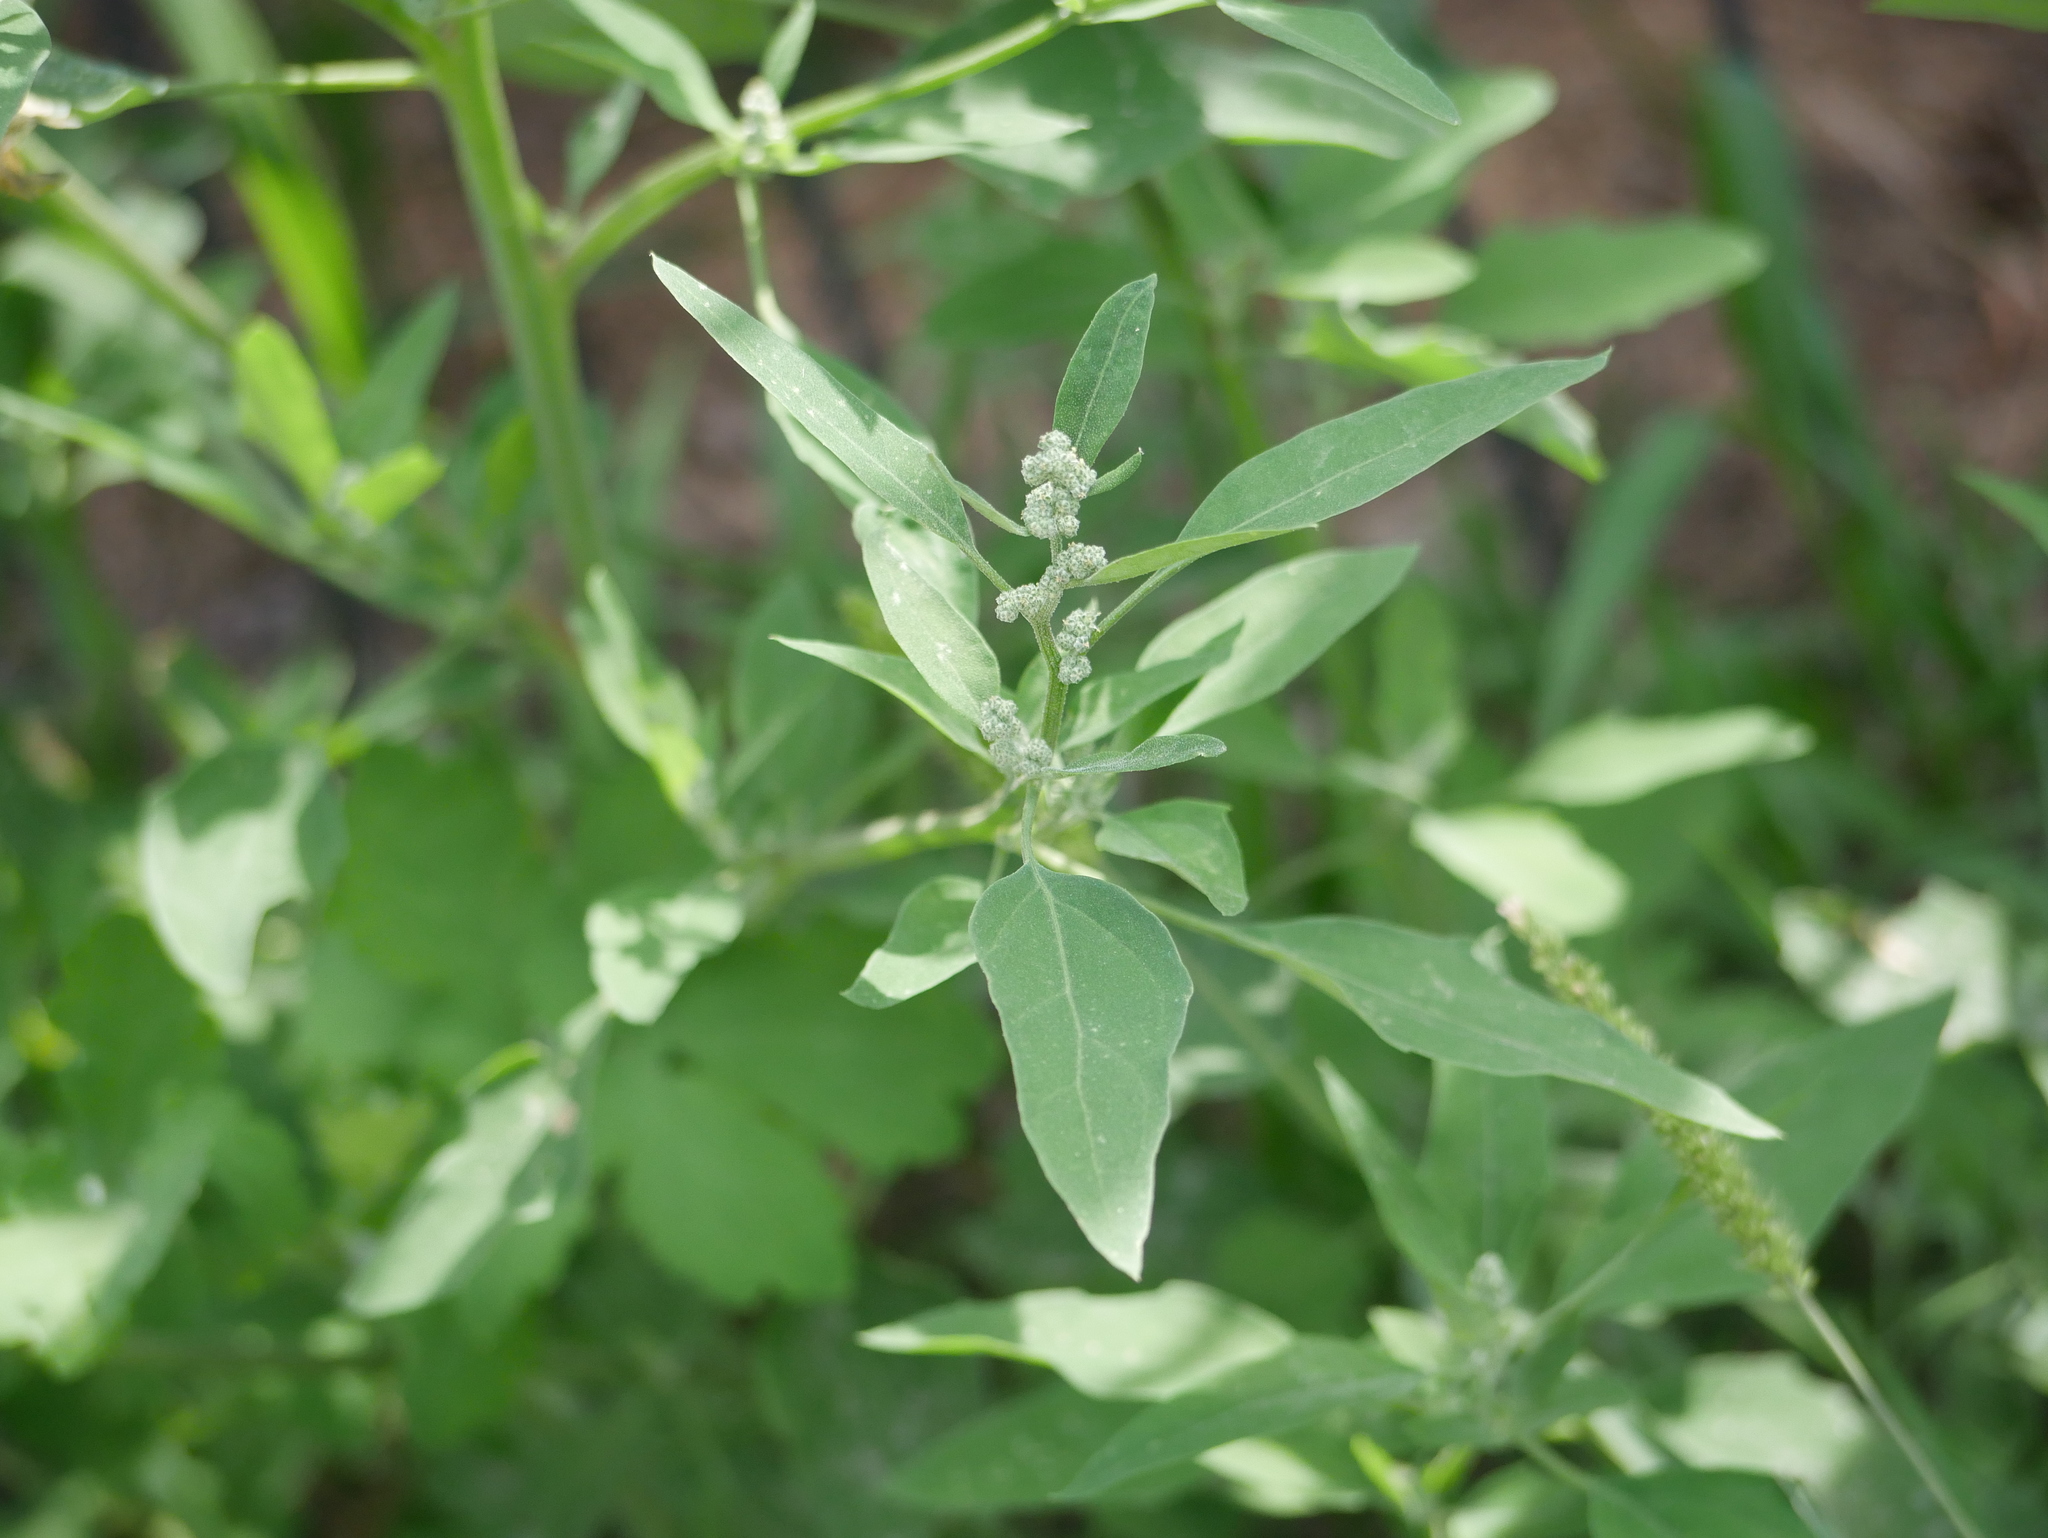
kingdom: Plantae
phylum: Tracheophyta
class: Magnoliopsida
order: Caryophyllales
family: Amaranthaceae
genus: Chenopodium
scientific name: Chenopodium album
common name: Fat-hen
